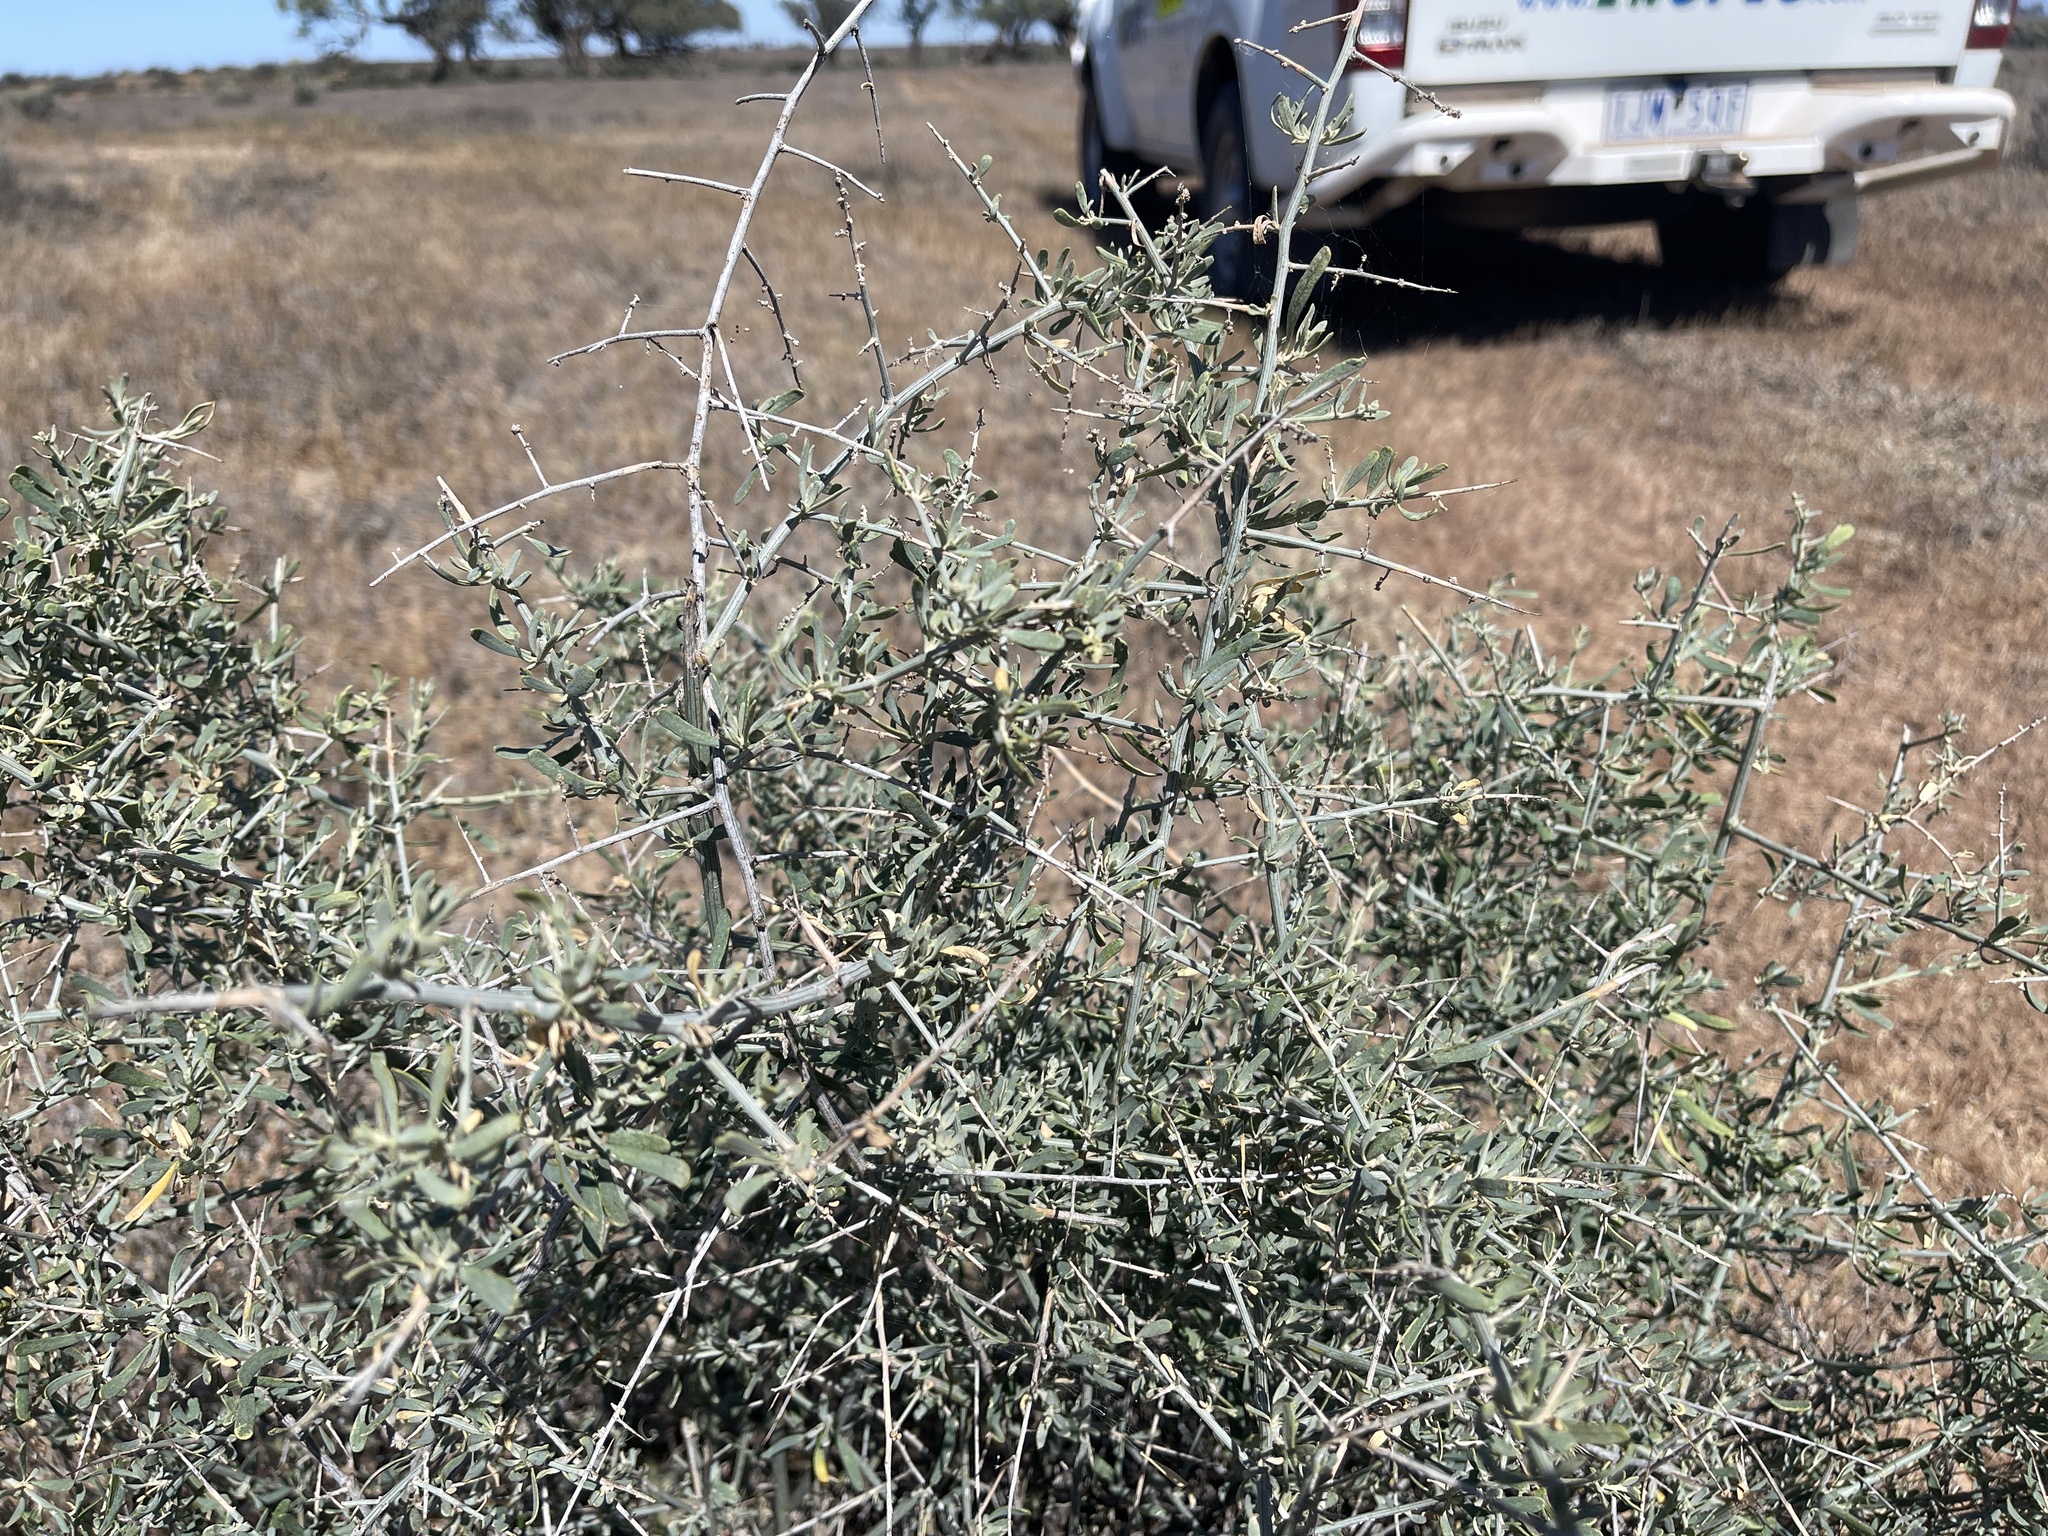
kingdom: Plantae
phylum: Tracheophyta
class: Magnoliopsida
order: Sapindales
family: Nitrariaceae
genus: Nitraria
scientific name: Nitraria billardierei
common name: Dillonbush
